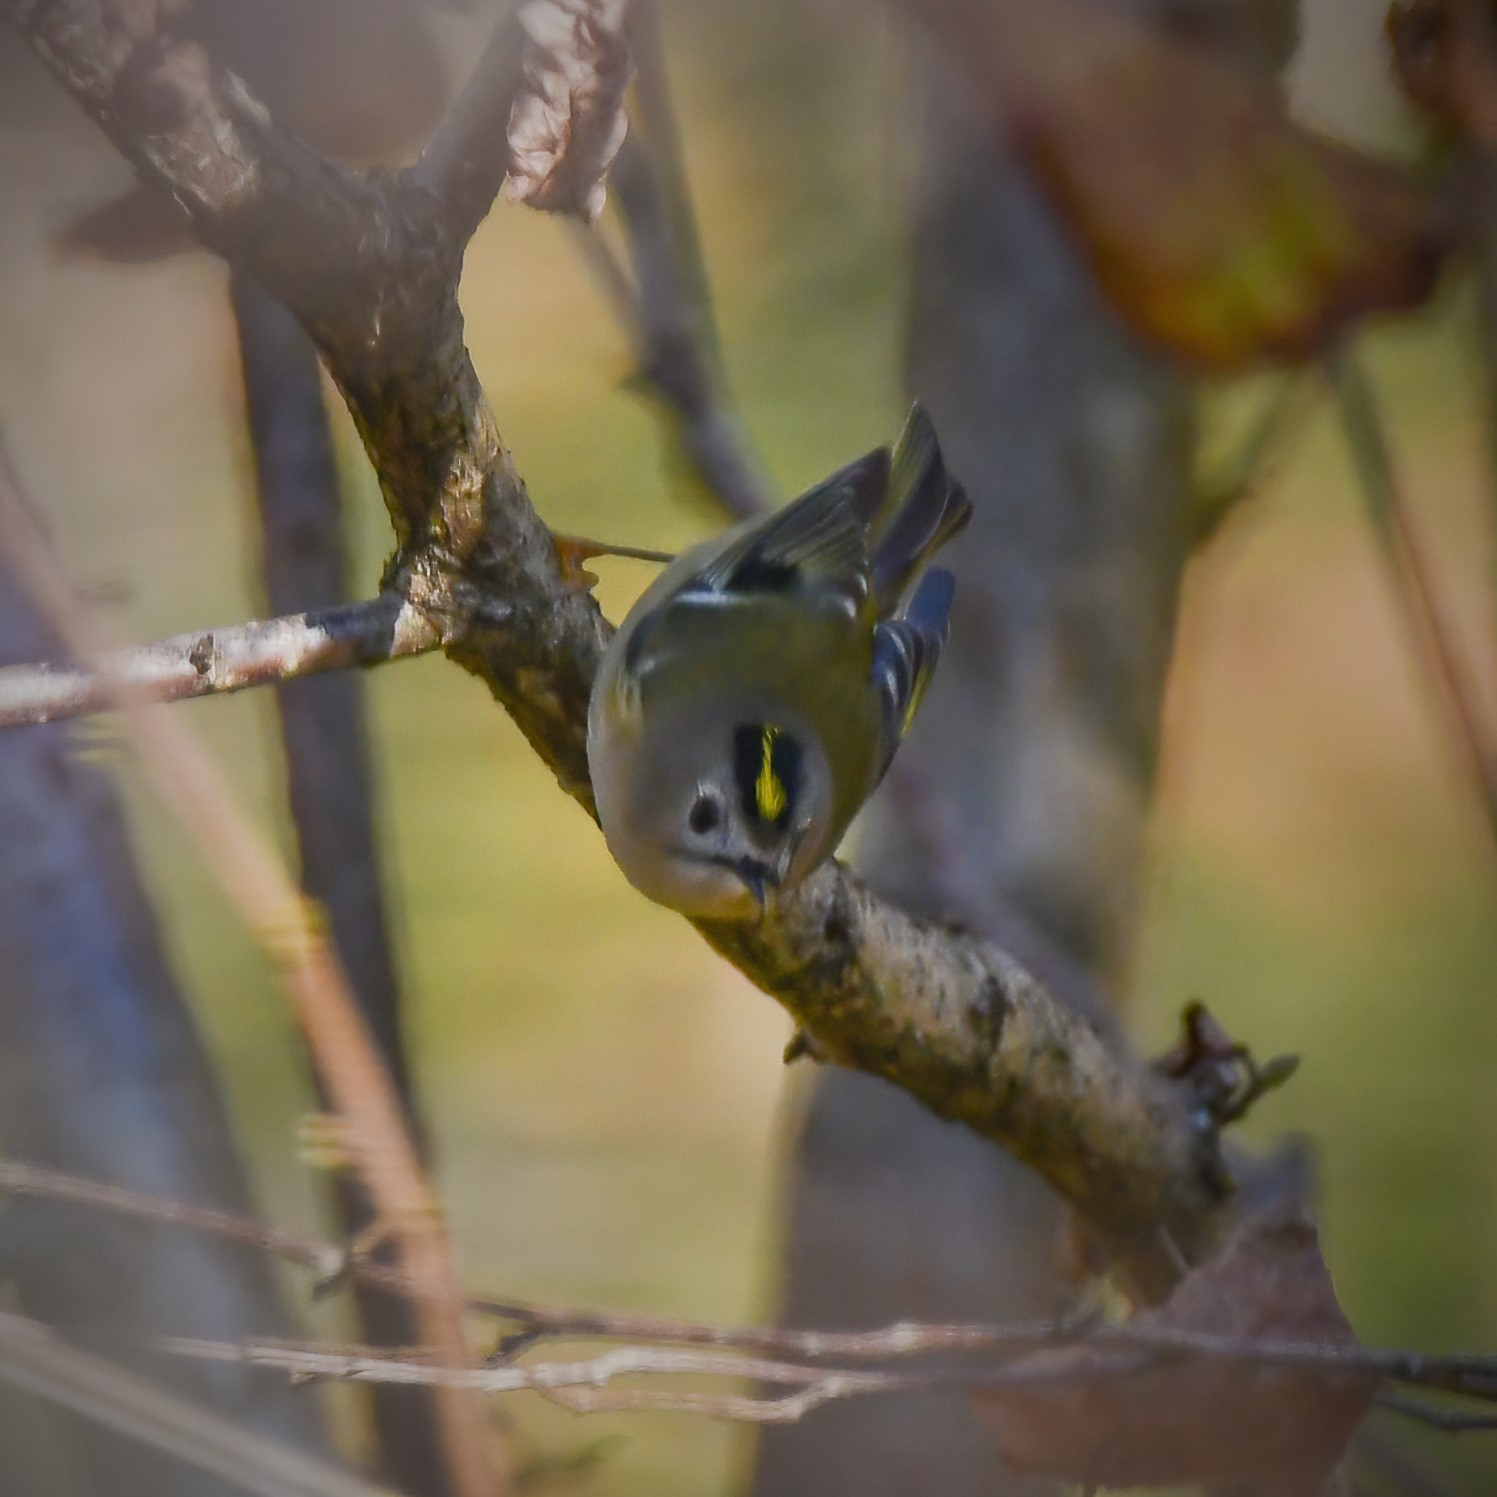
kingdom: Animalia
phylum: Chordata
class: Aves
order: Passeriformes
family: Regulidae
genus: Regulus
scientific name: Regulus regulus
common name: Goldcrest
